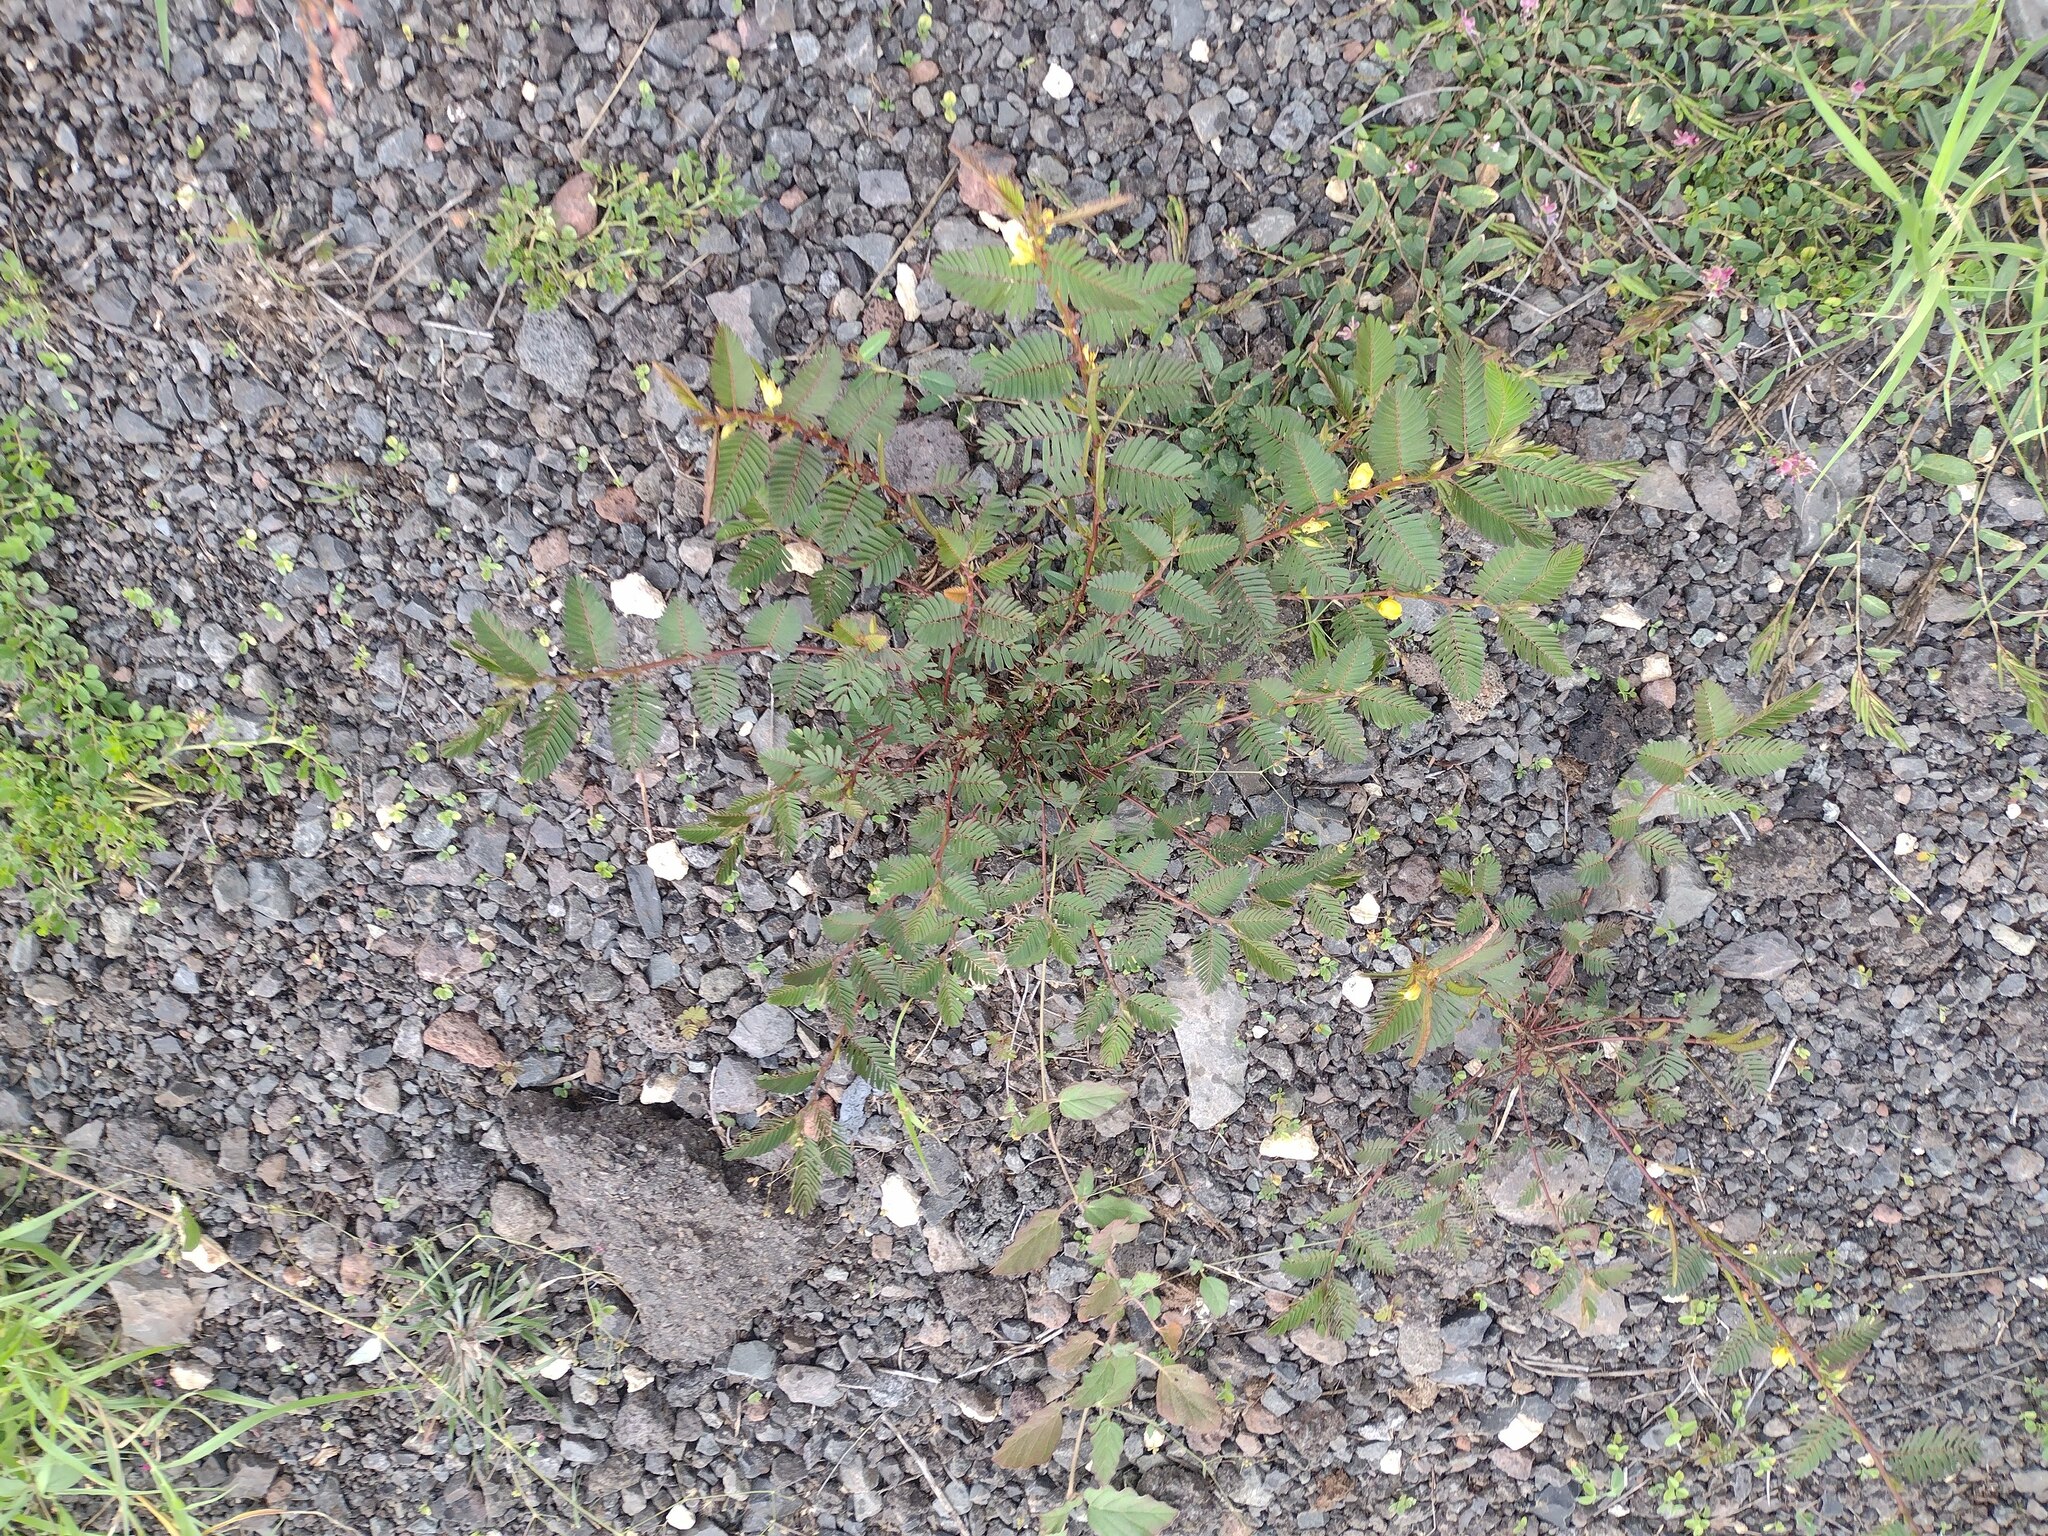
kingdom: Plantae
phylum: Tracheophyta
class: Magnoliopsida
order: Fabales
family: Fabaceae
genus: Chamaecrista
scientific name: Chamaecrista nictitans
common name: Sensitive cassia
